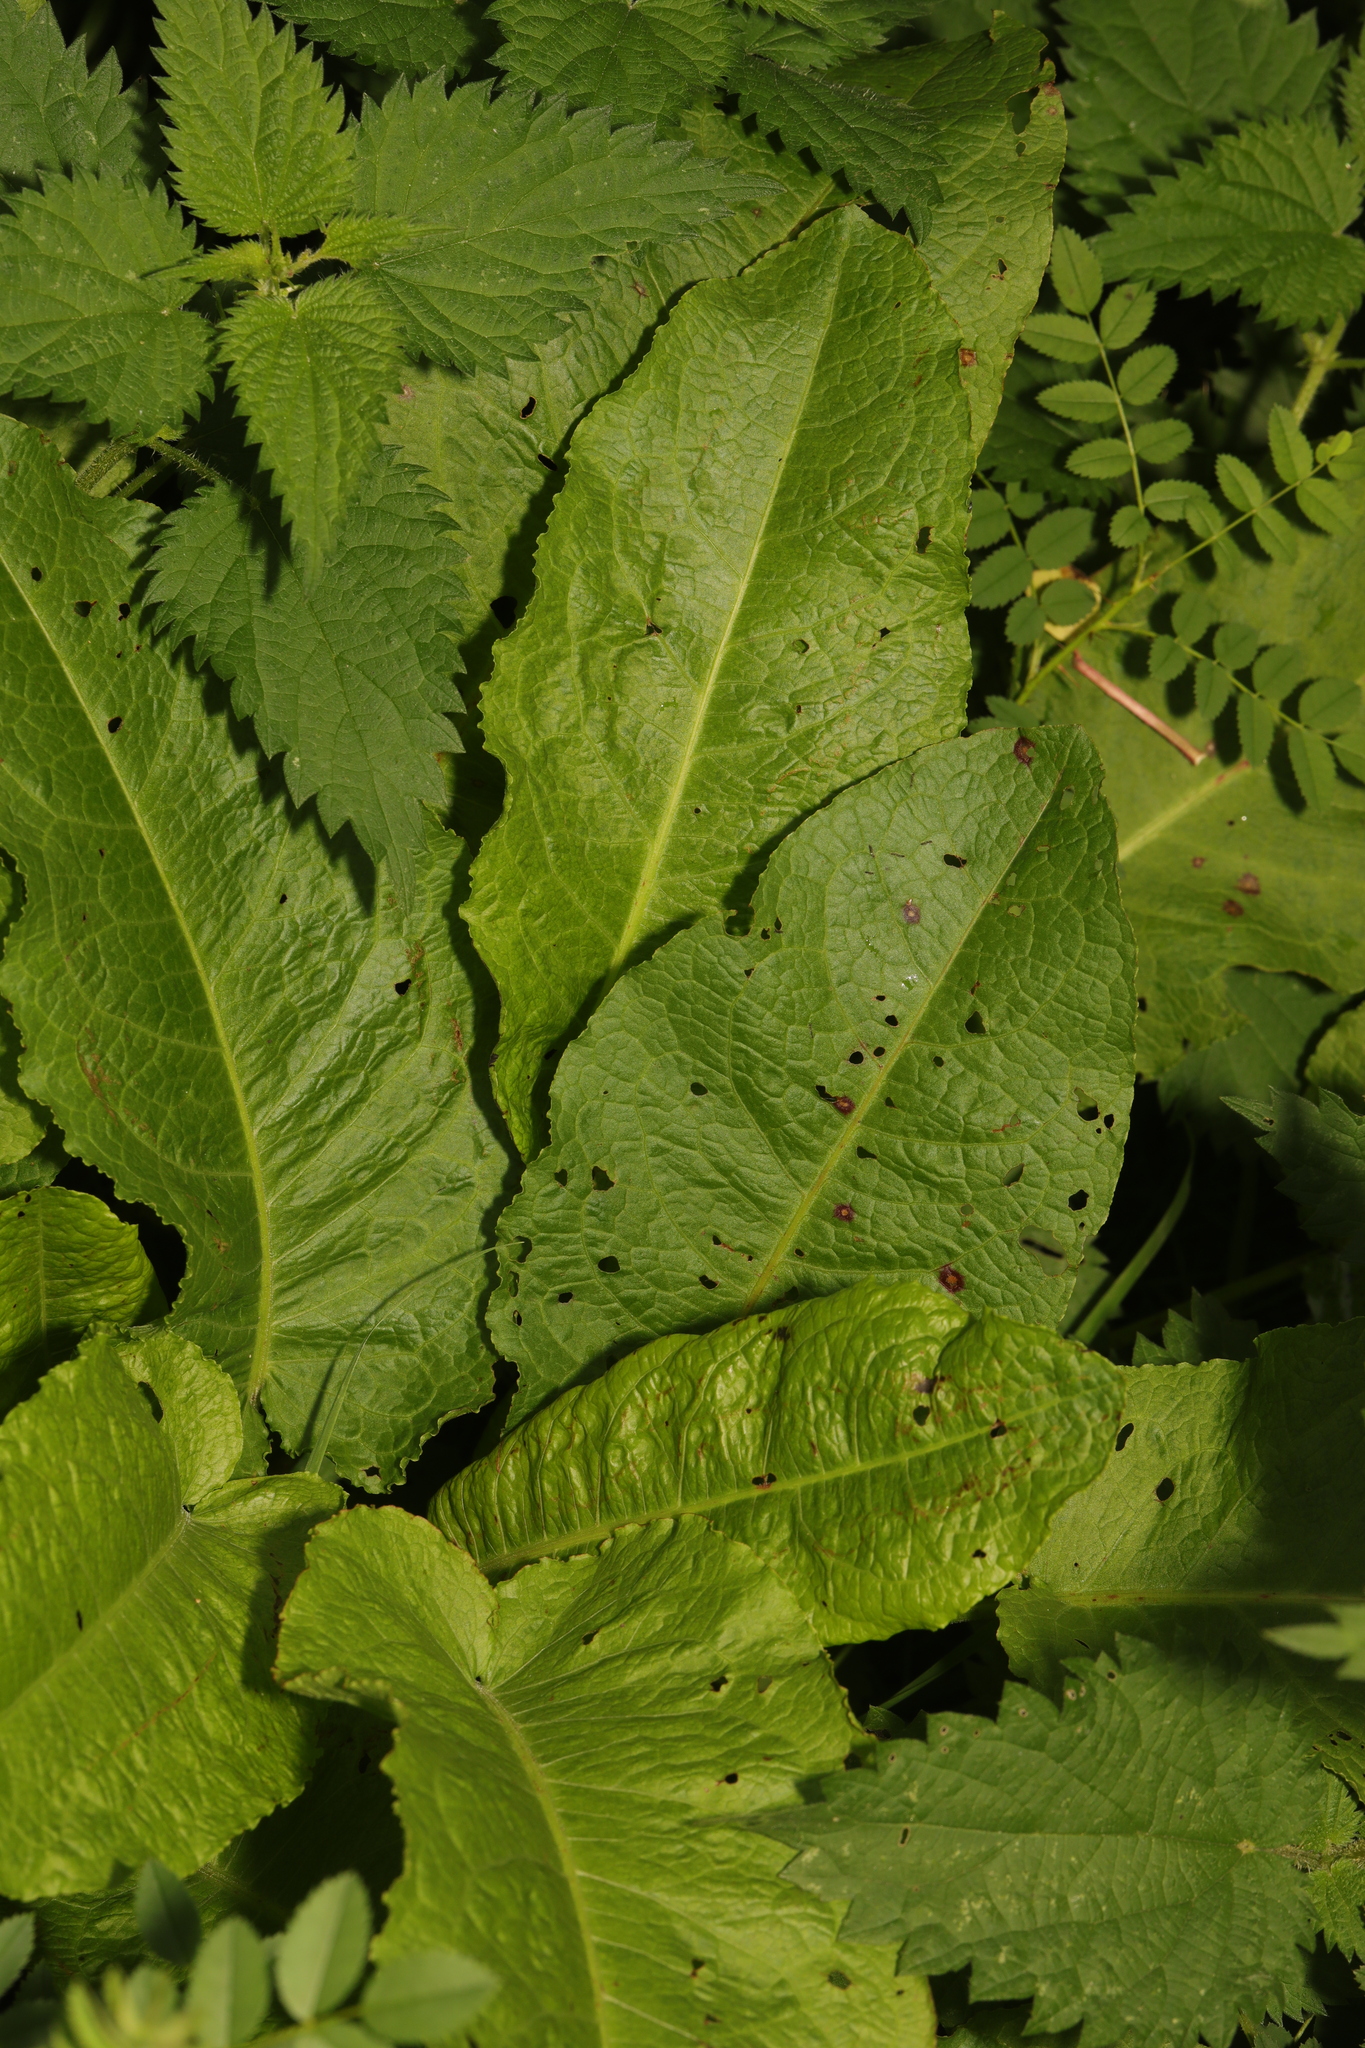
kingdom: Plantae
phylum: Tracheophyta
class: Magnoliopsida
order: Caryophyllales
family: Polygonaceae
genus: Rumex
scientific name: Rumex obtusifolius
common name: Bitter dock
